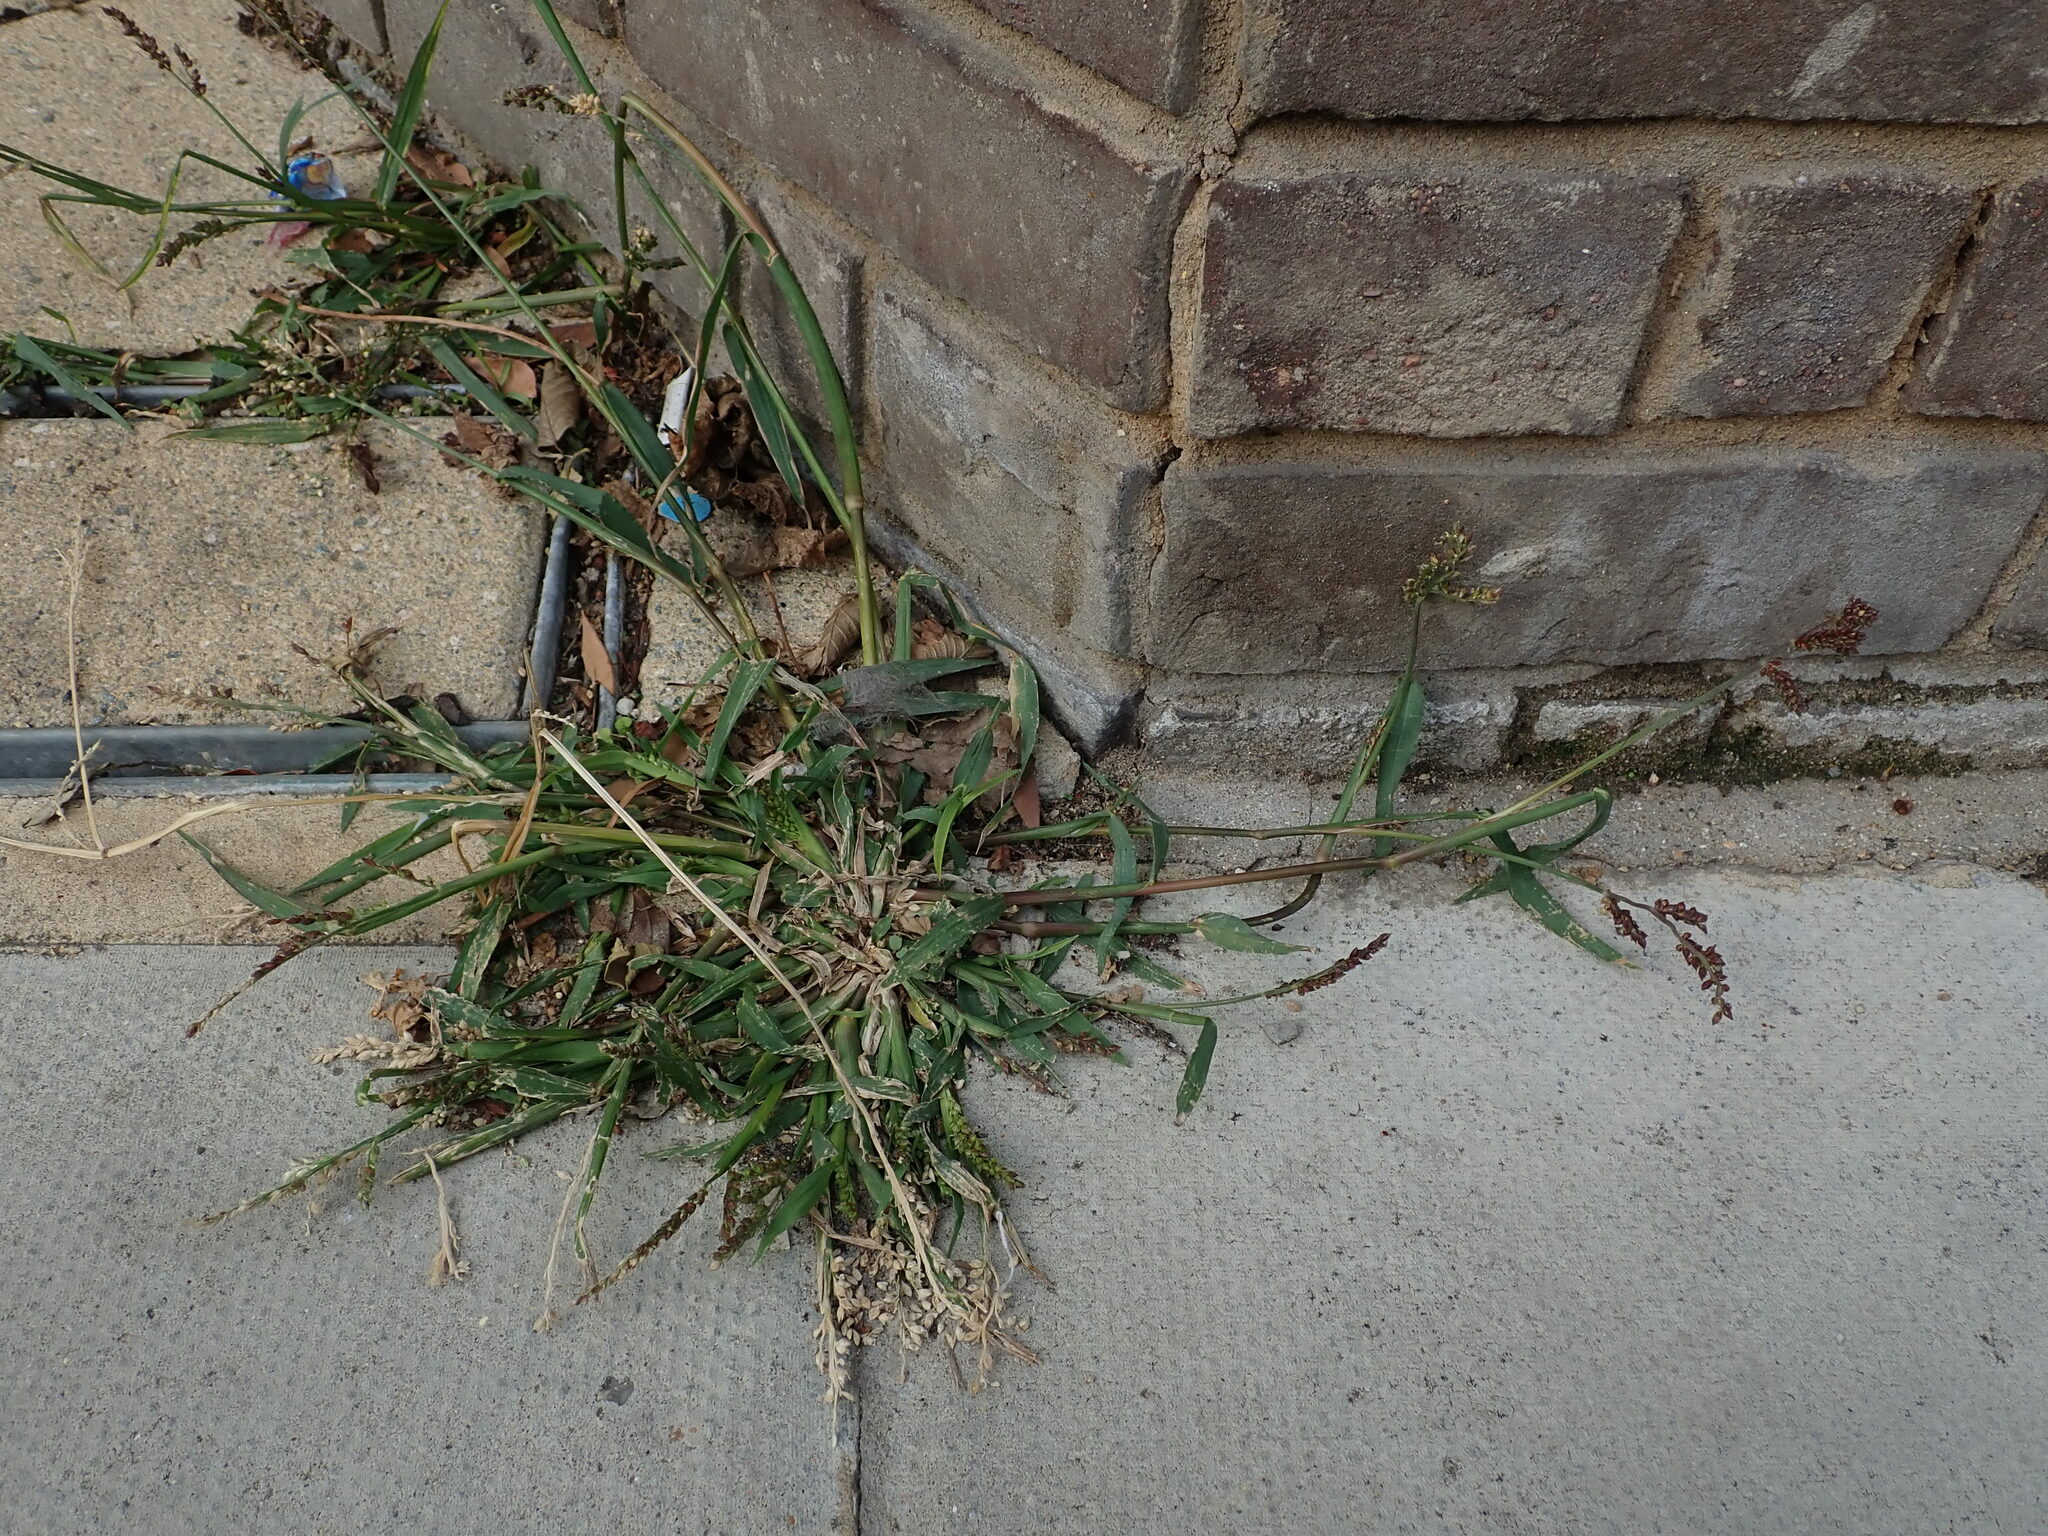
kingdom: Plantae
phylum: Tracheophyta
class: Liliopsida
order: Poales
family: Poaceae
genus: Echinochloa
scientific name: Echinochloa crus-galli
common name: Cockspur
